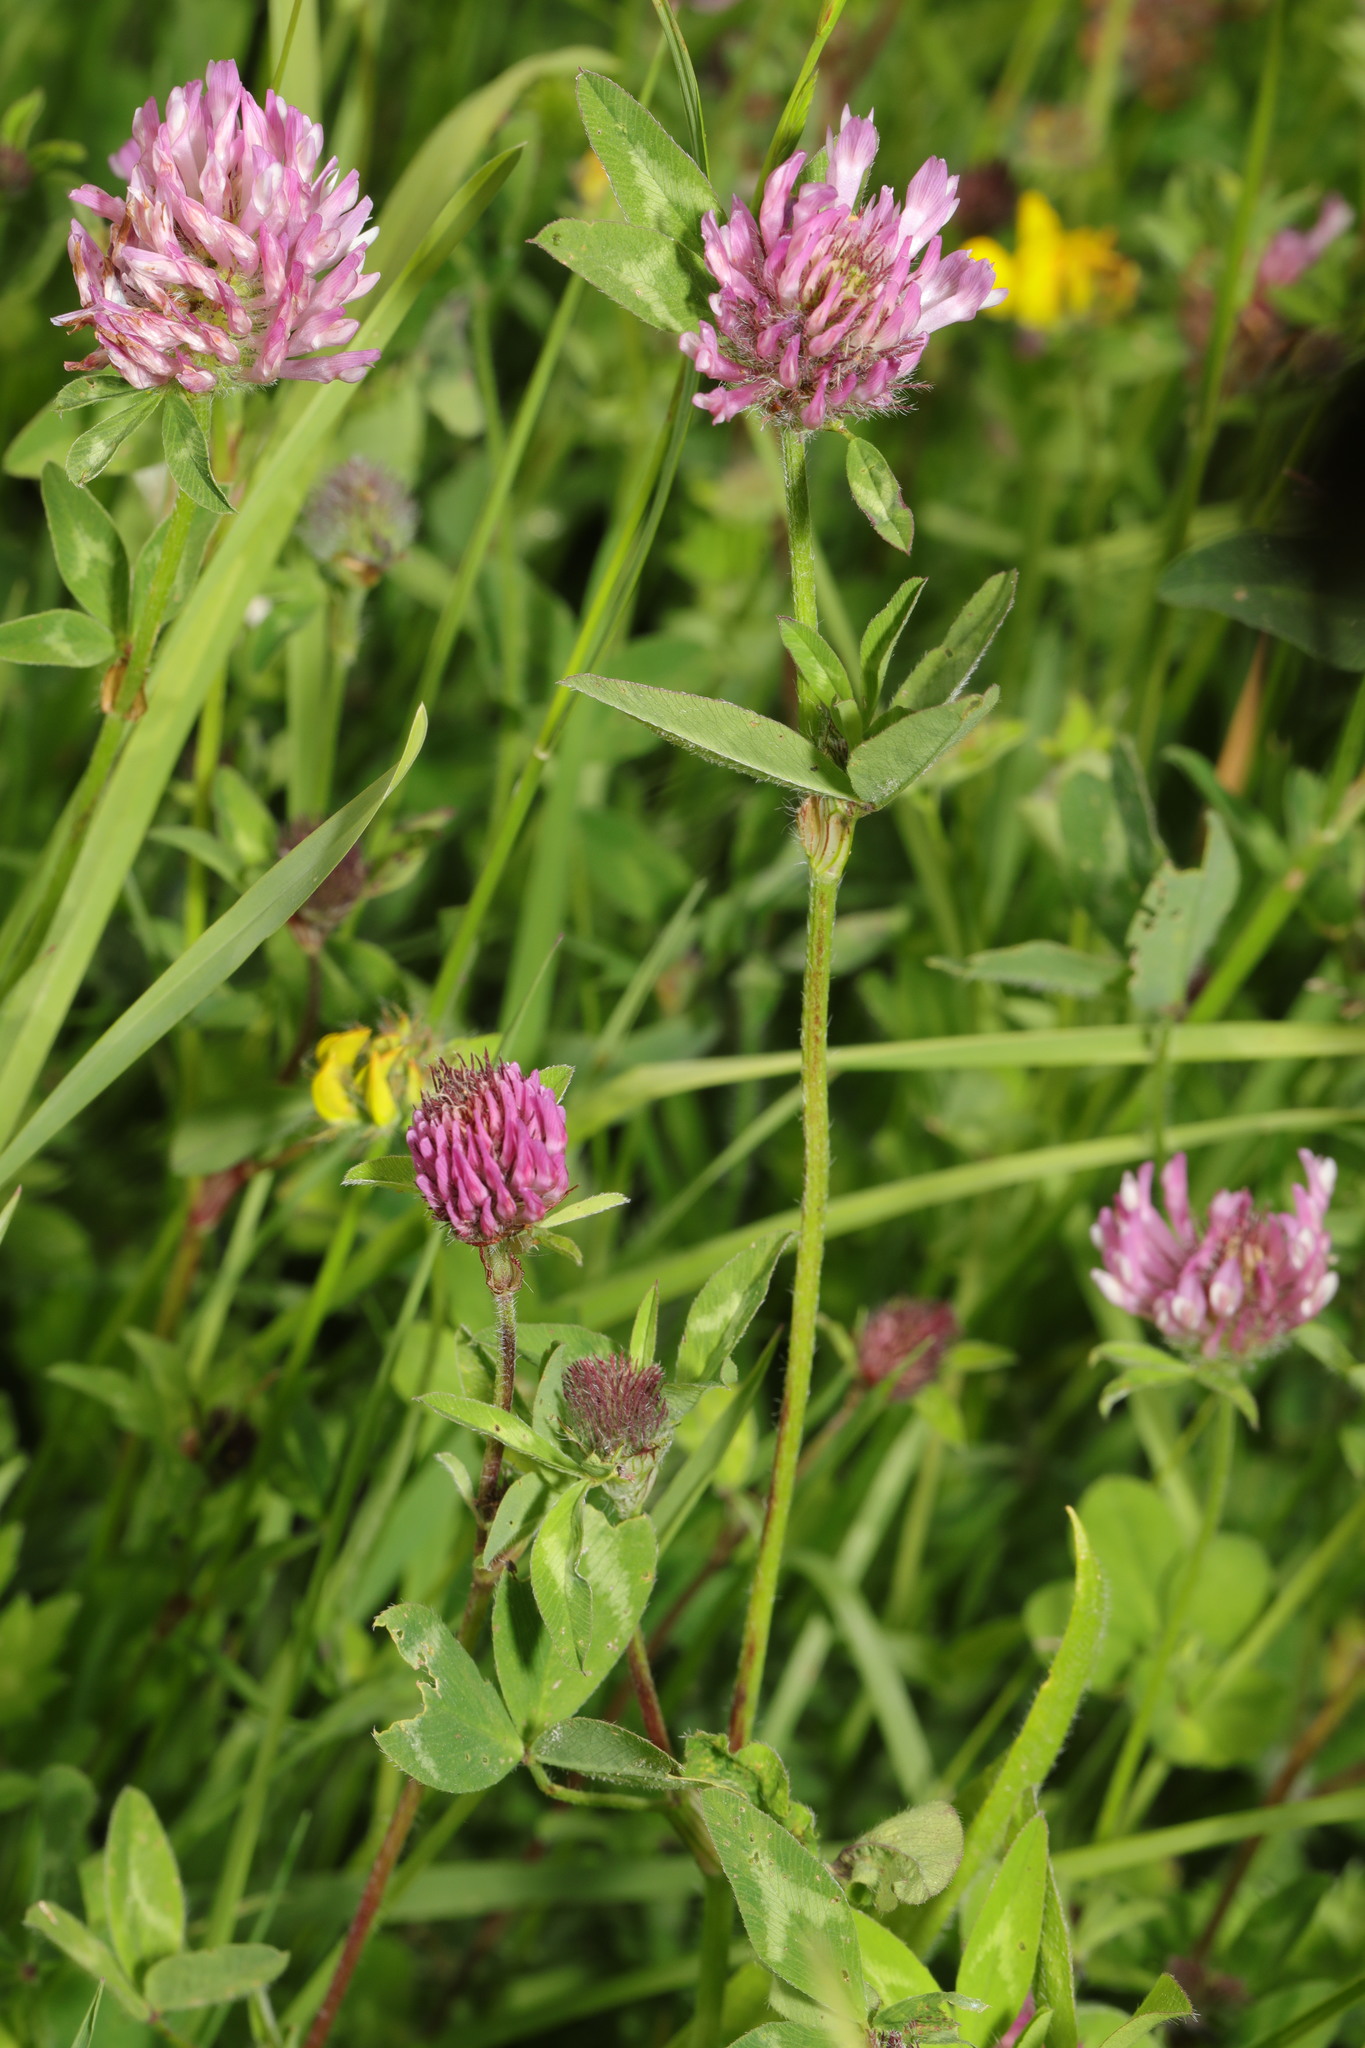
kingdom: Plantae
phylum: Tracheophyta
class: Magnoliopsida
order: Fabales
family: Fabaceae
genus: Trifolium
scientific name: Trifolium pratense
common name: Red clover
